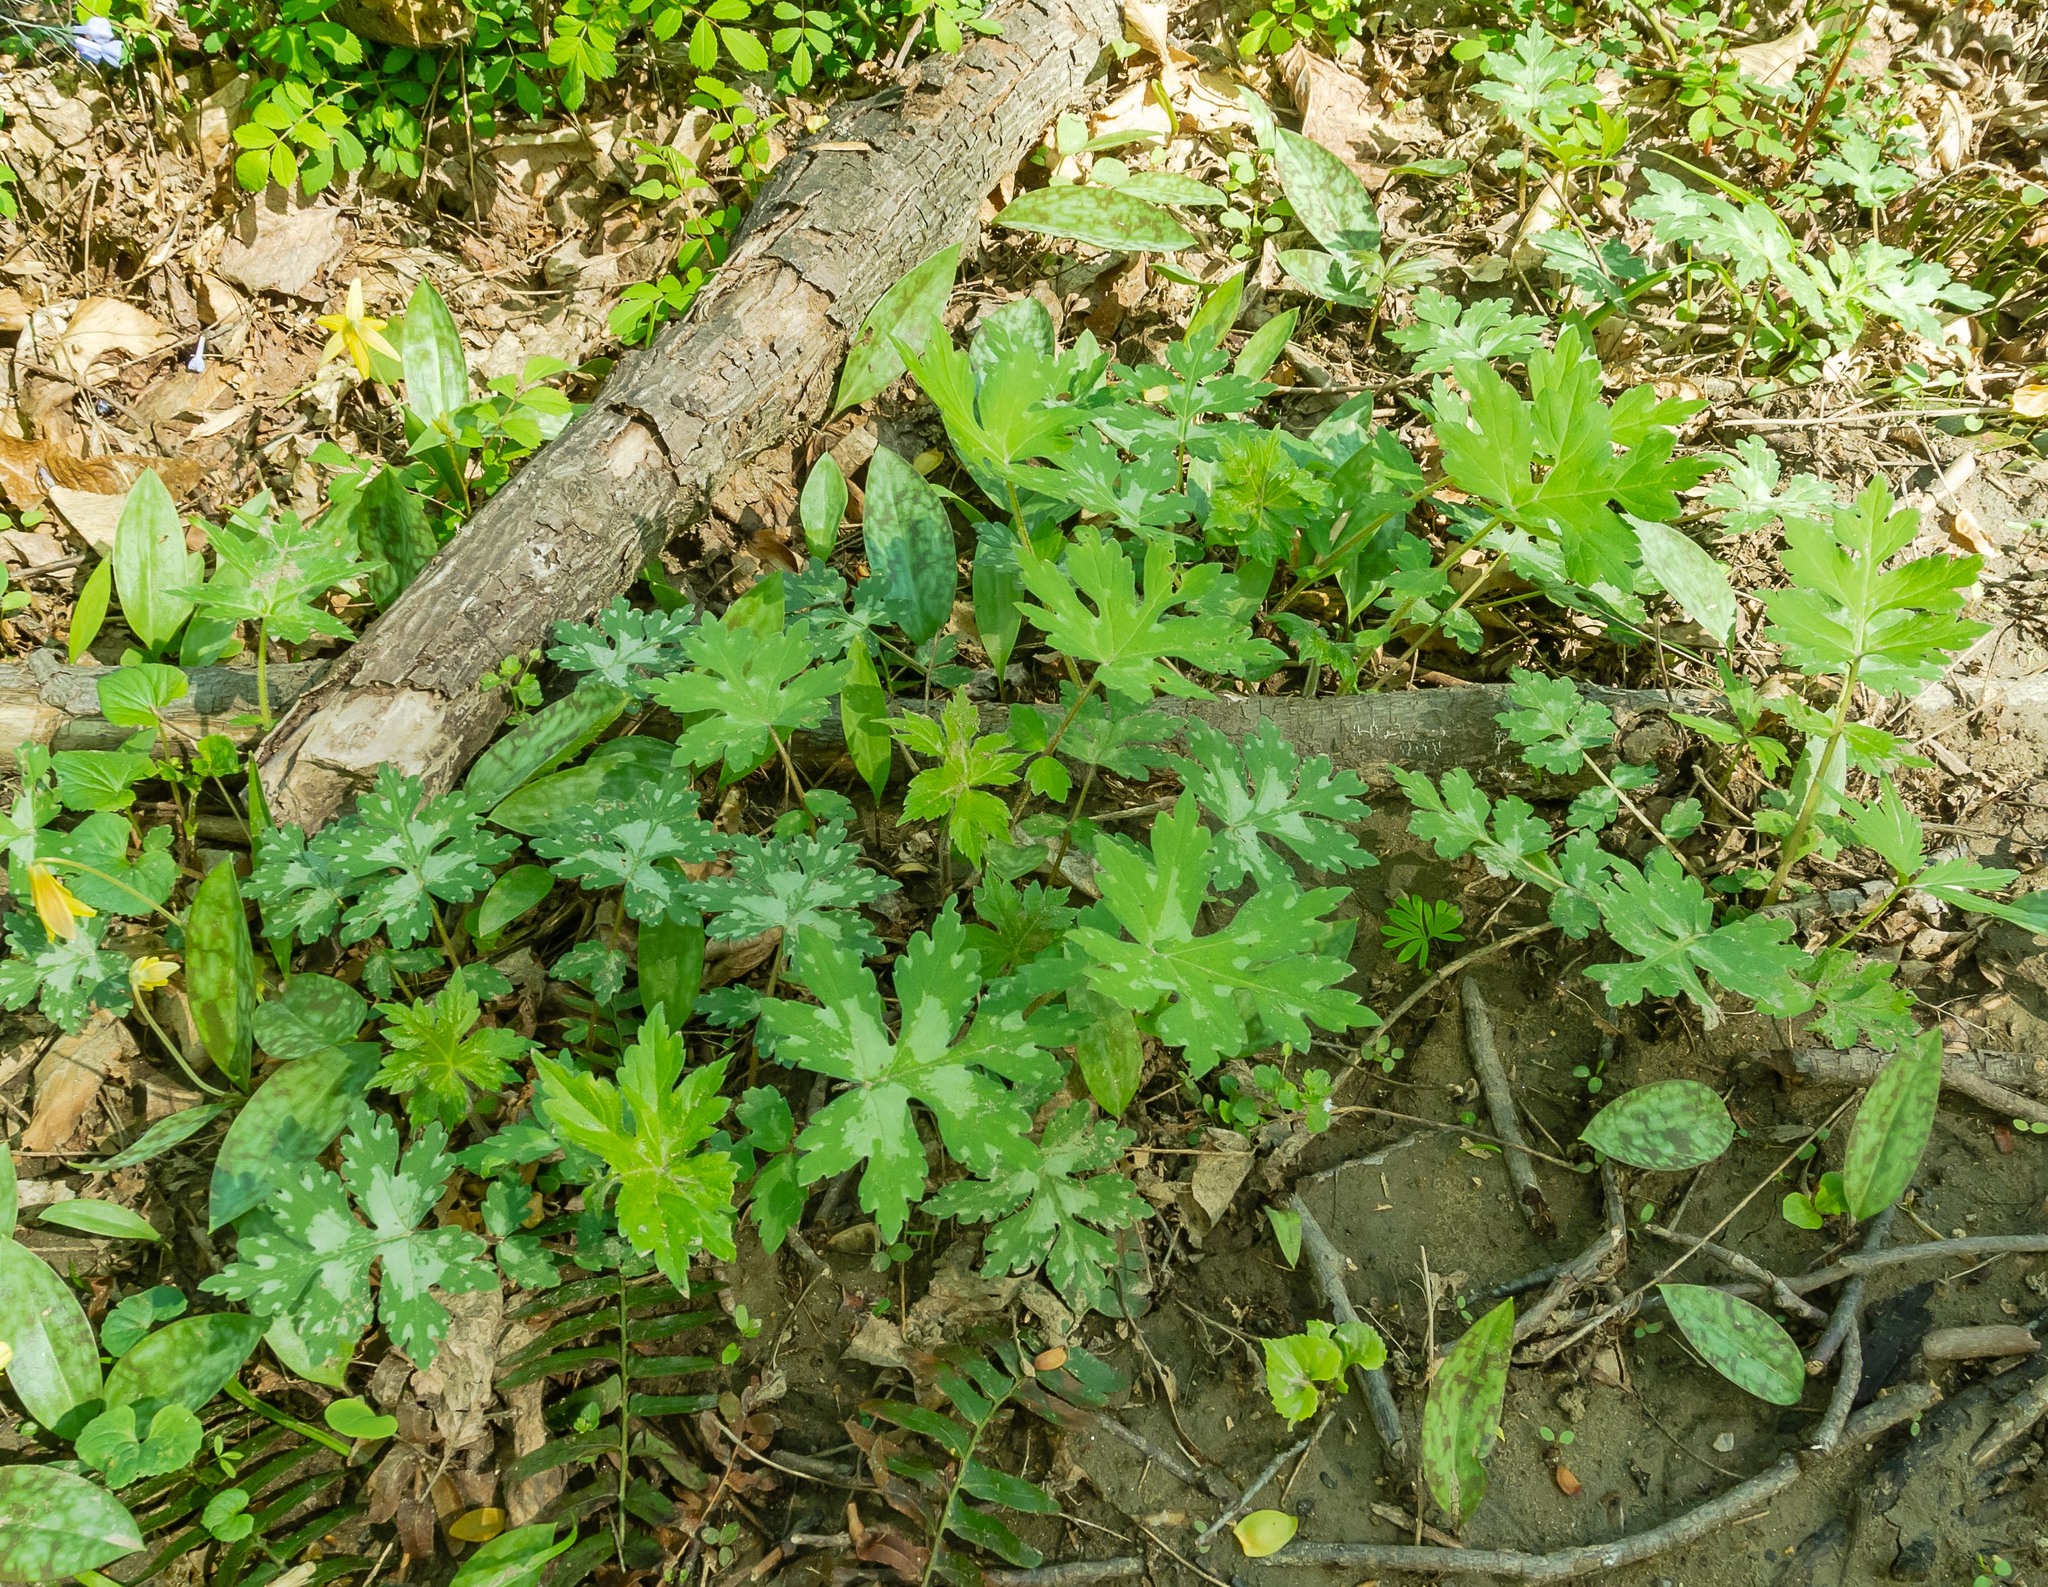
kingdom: Plantae
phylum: Tracheophyta
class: Magnoliopsida
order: Boraginales
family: Hydrophyllaceae
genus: Hydrophyllum
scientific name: Hydrophyllum canadense
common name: Canada waterleaf
